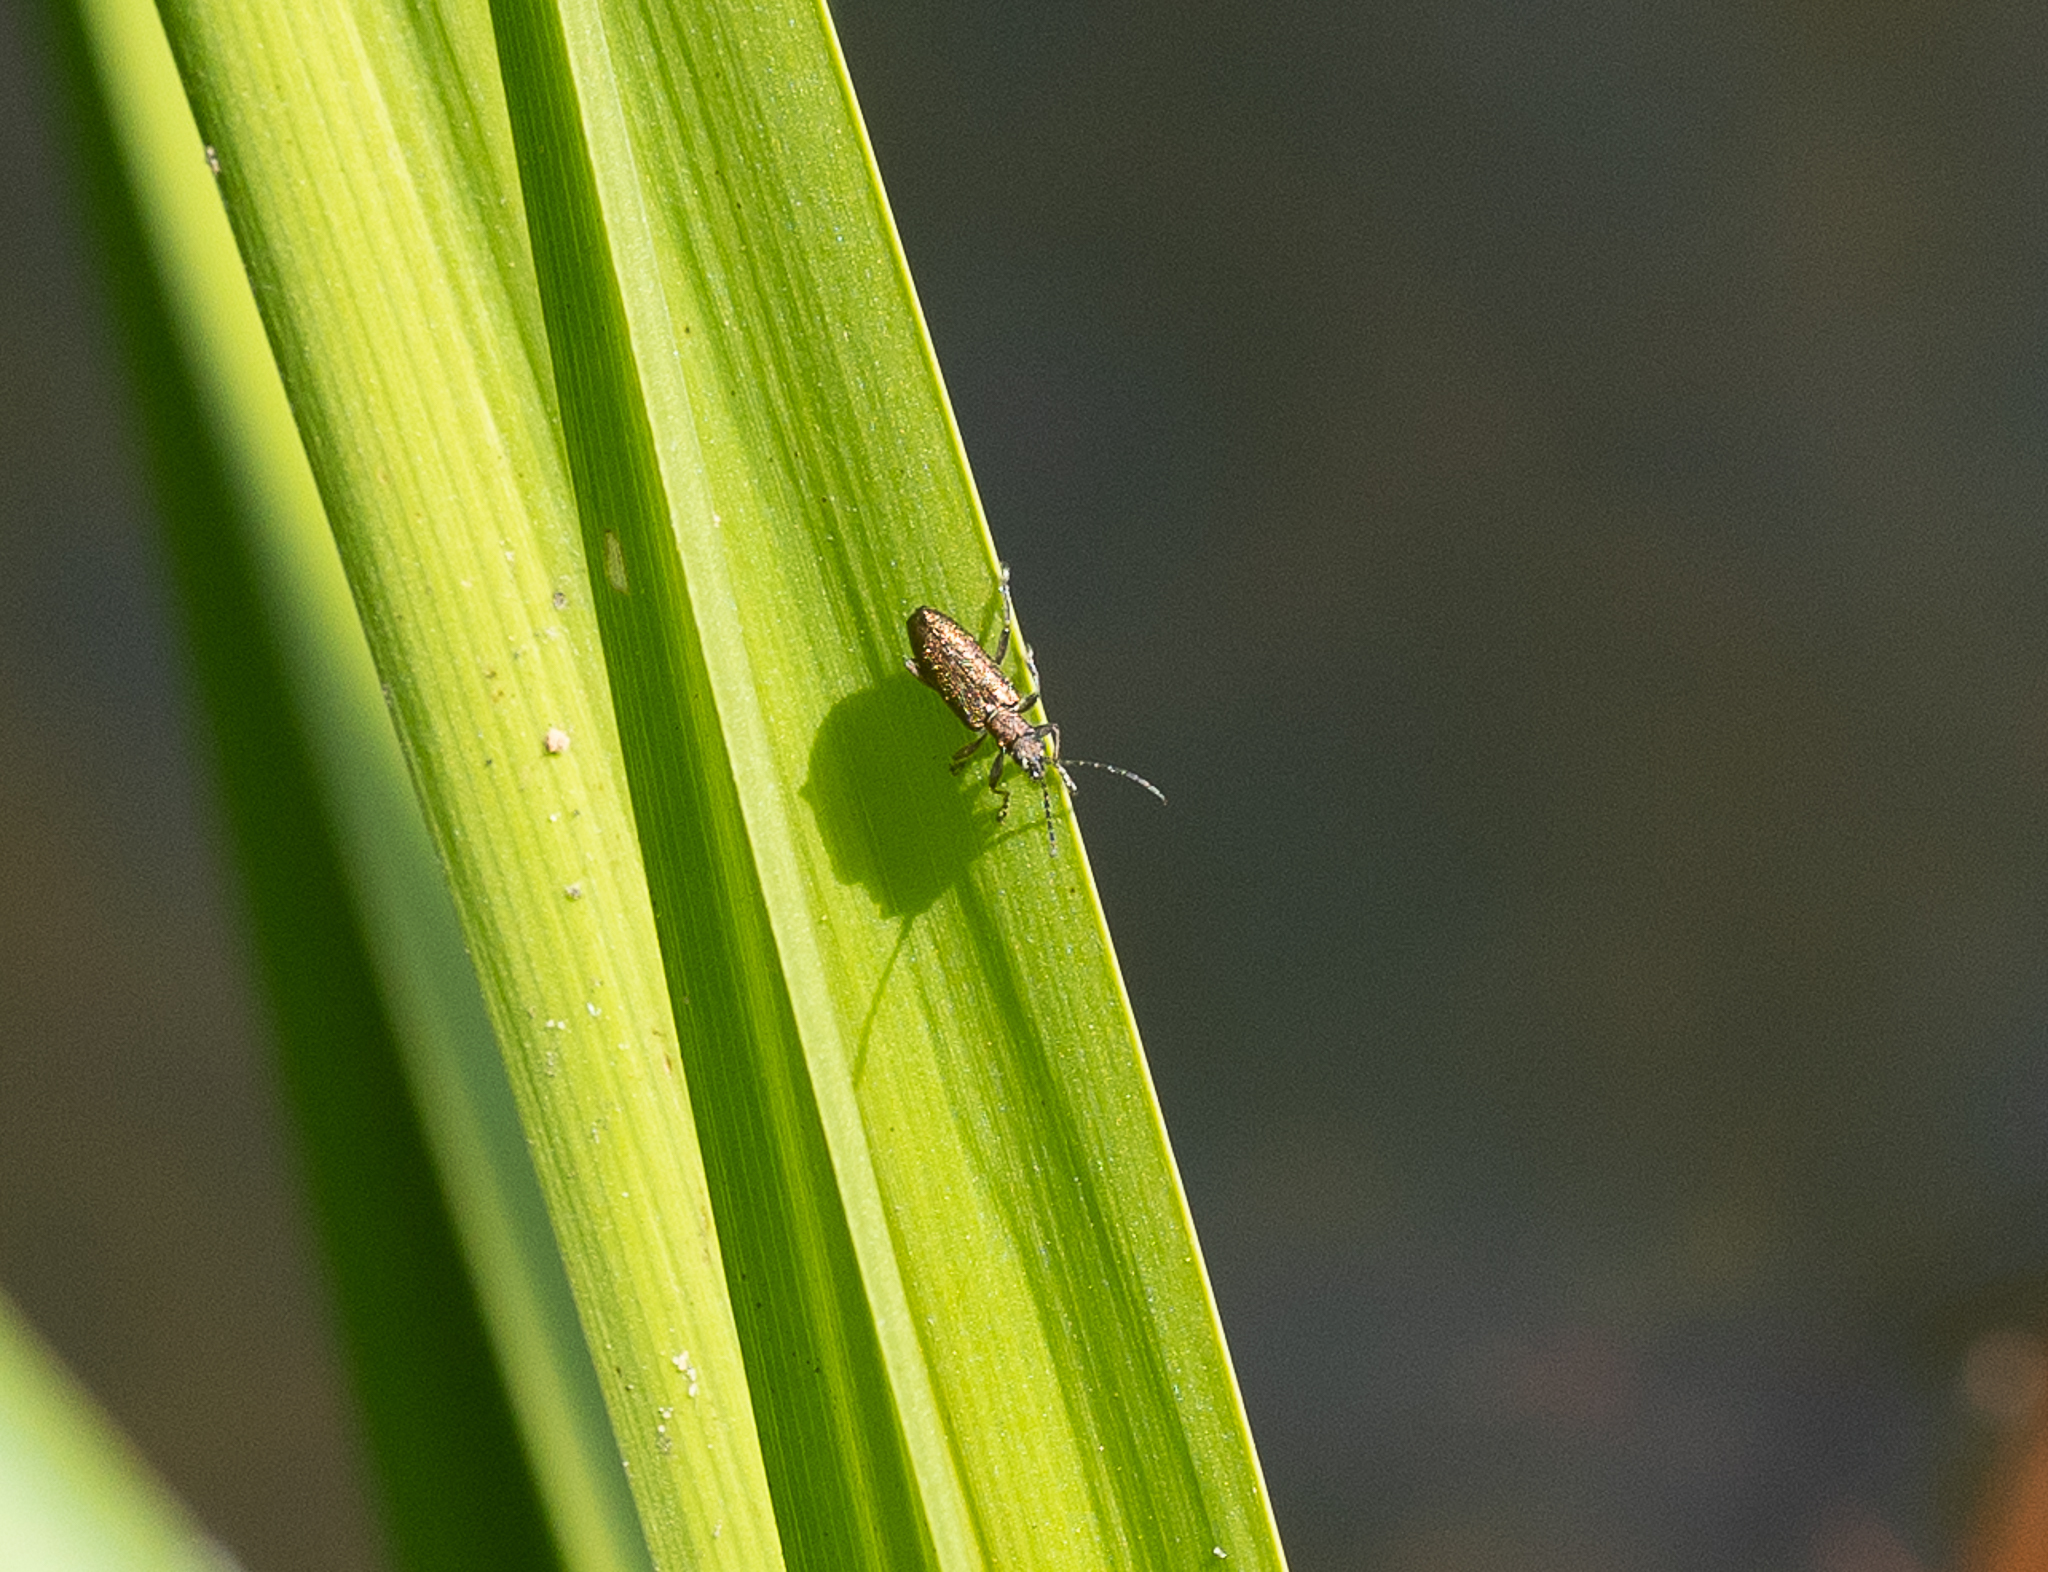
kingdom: Animalia
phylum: Arthropoda
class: Insecta
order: Coleoptera
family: Chrysomelidae
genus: Donacia
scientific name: Donacia simplex
